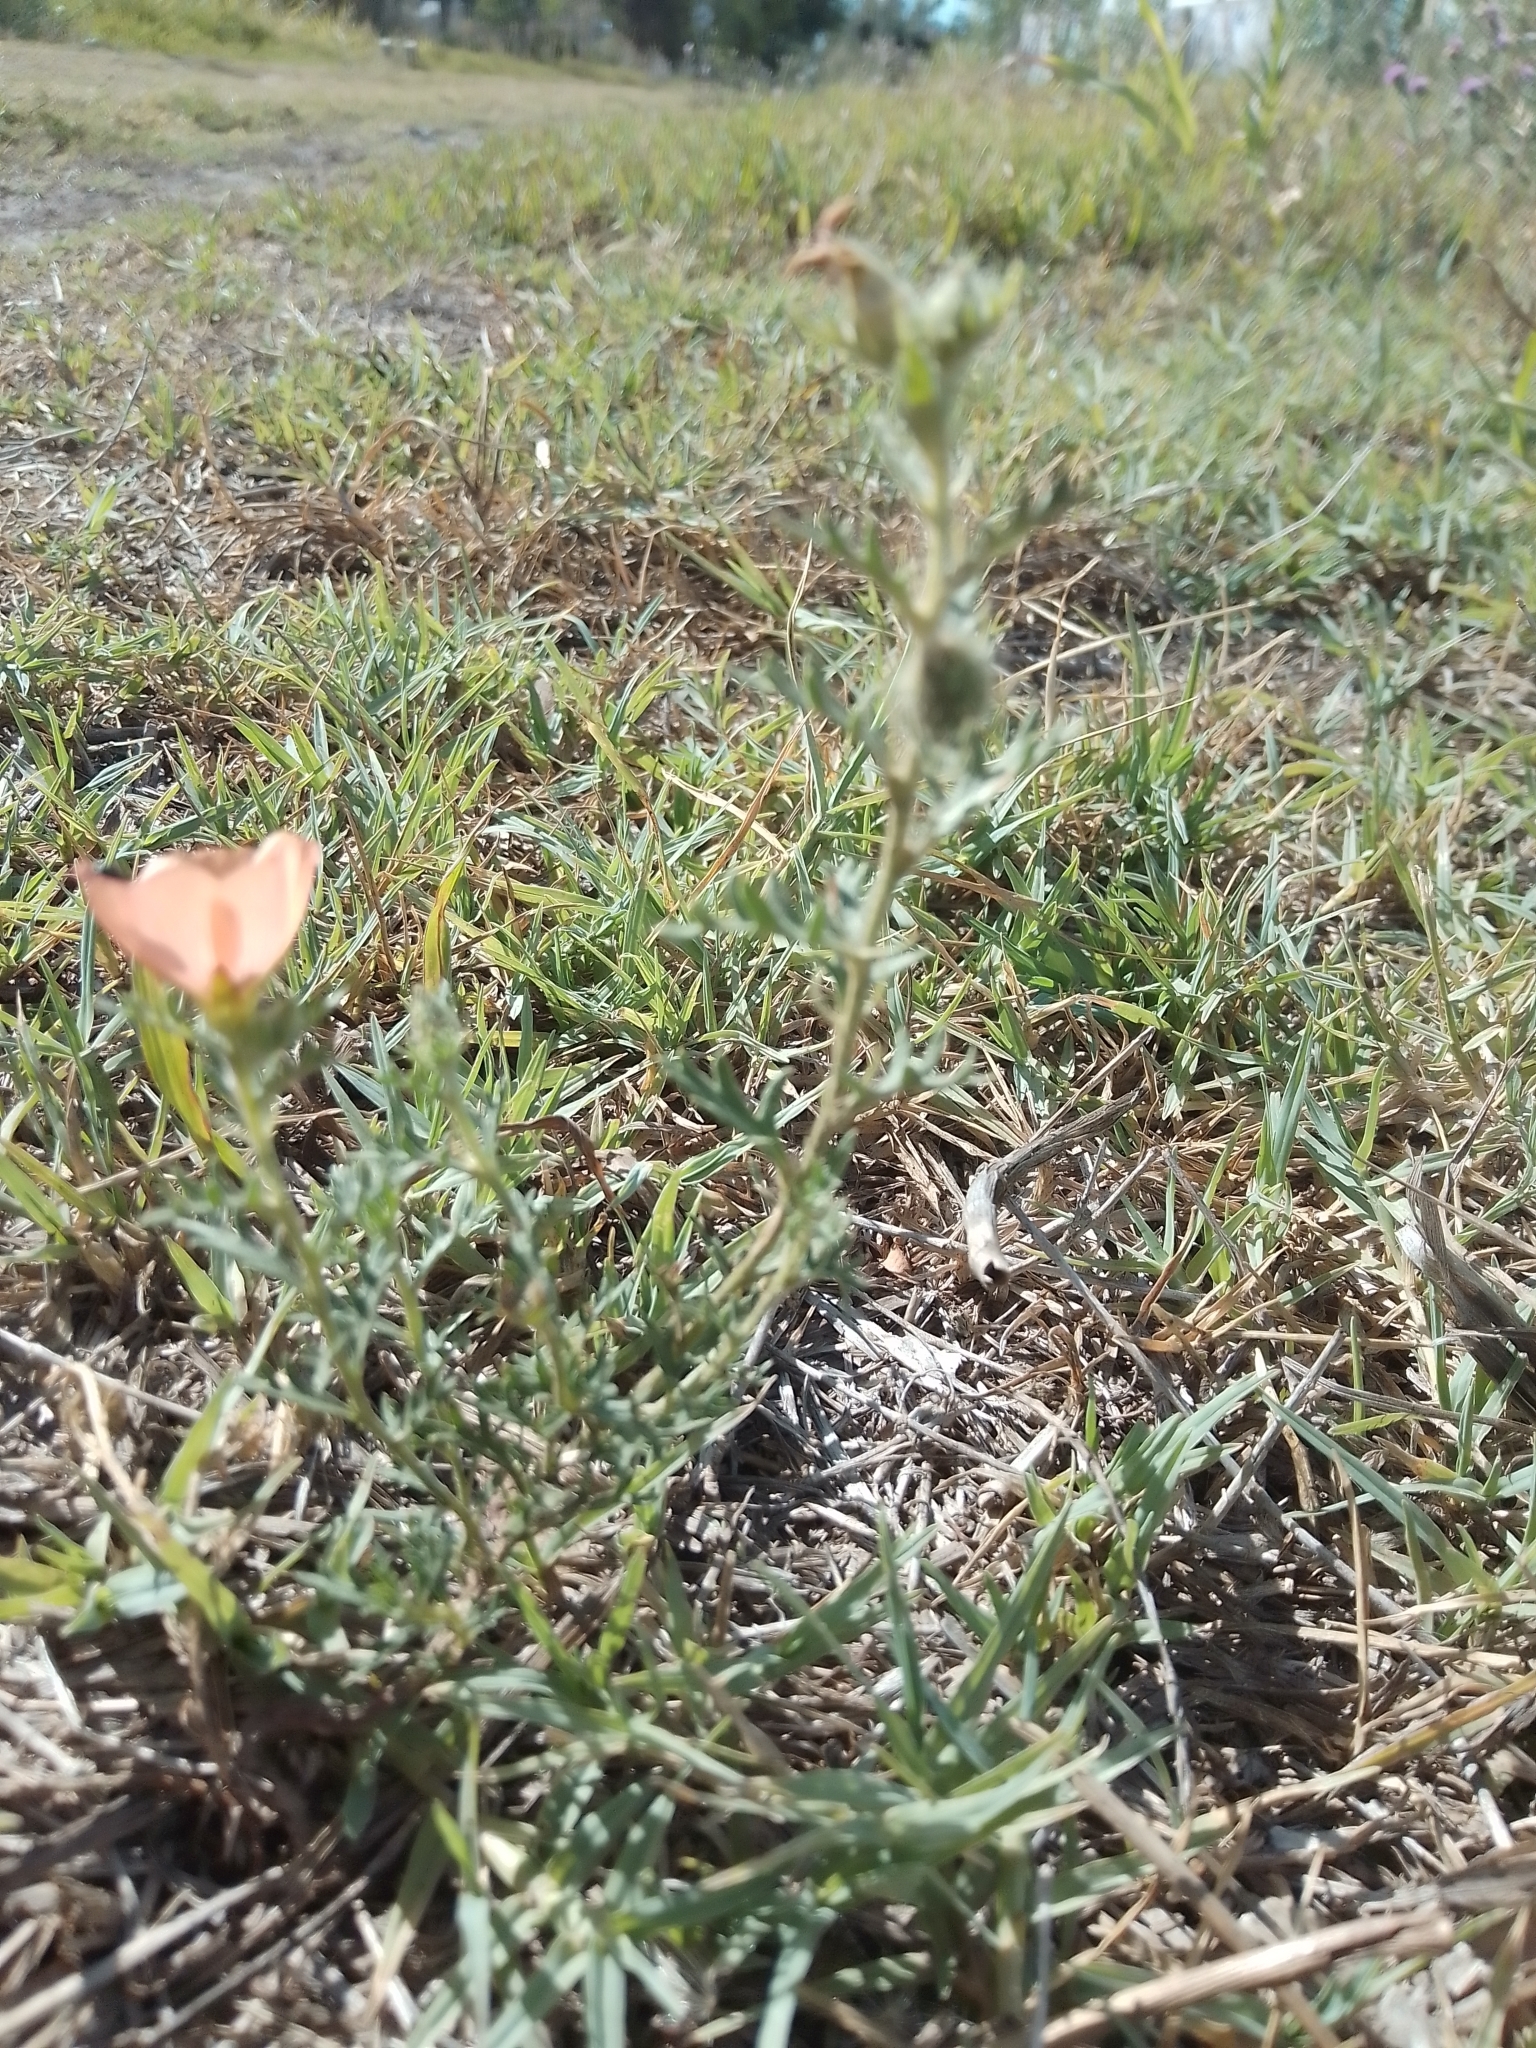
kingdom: Plantae
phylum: Tracheophyta
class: Magnoliopsida
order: Malpighiales
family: Turneraceae
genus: Turnera
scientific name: Turnera sidoides
